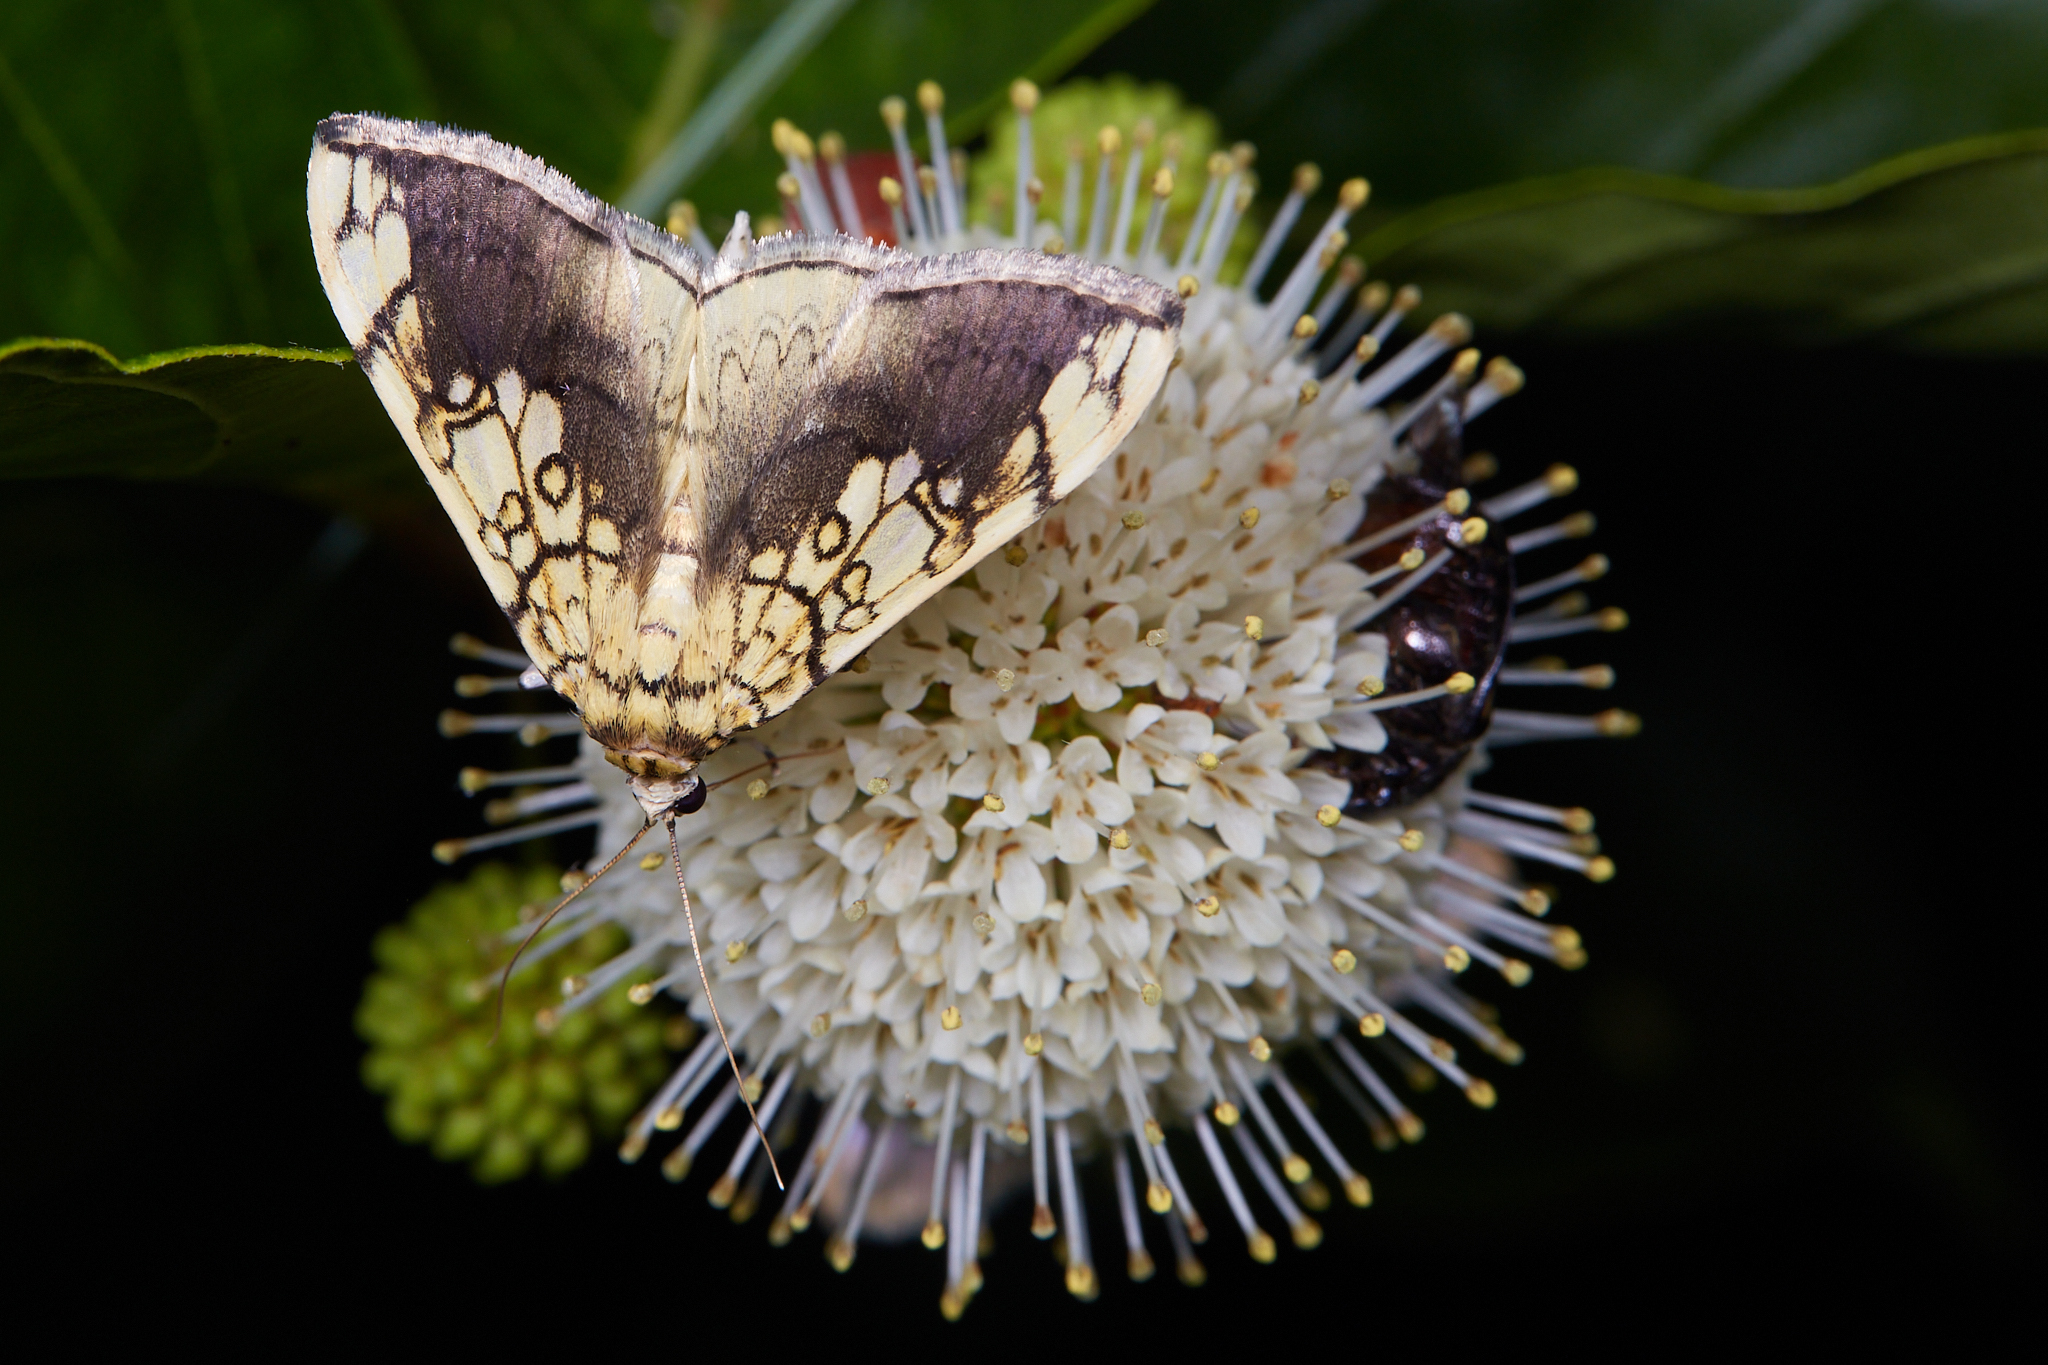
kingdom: Animalia
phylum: Arthropoda
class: Insecta
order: Lepidoptera
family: Crambidae
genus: Pantographa
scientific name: Pantographa limata
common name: Basswood leafroller moth
